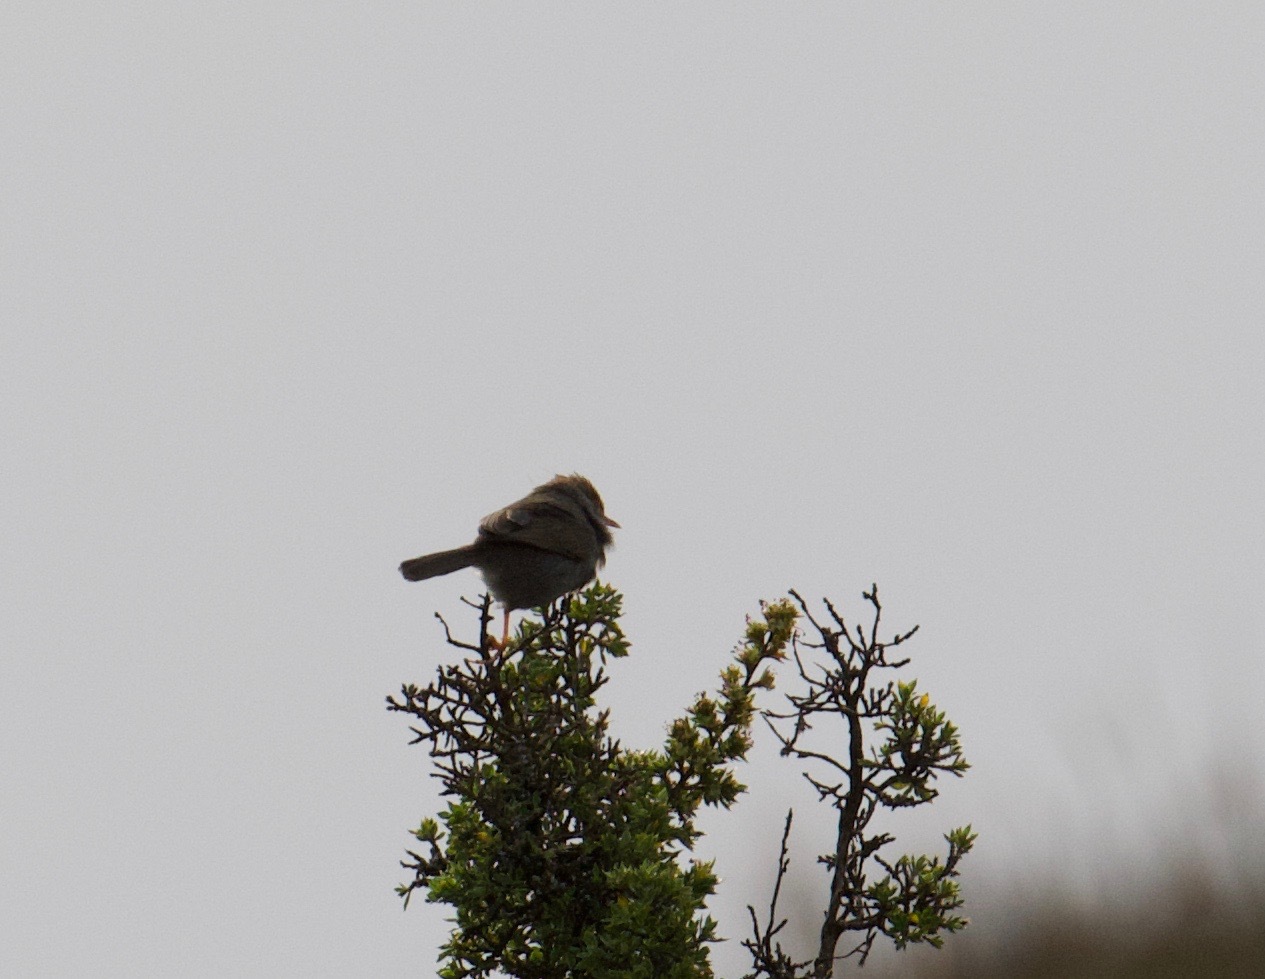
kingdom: Animalia
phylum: Chordata
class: Aves
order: Passeriformes
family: Cisticolidae
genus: Cisticola
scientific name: Cisticola fulvicapilla
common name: Neddicky
